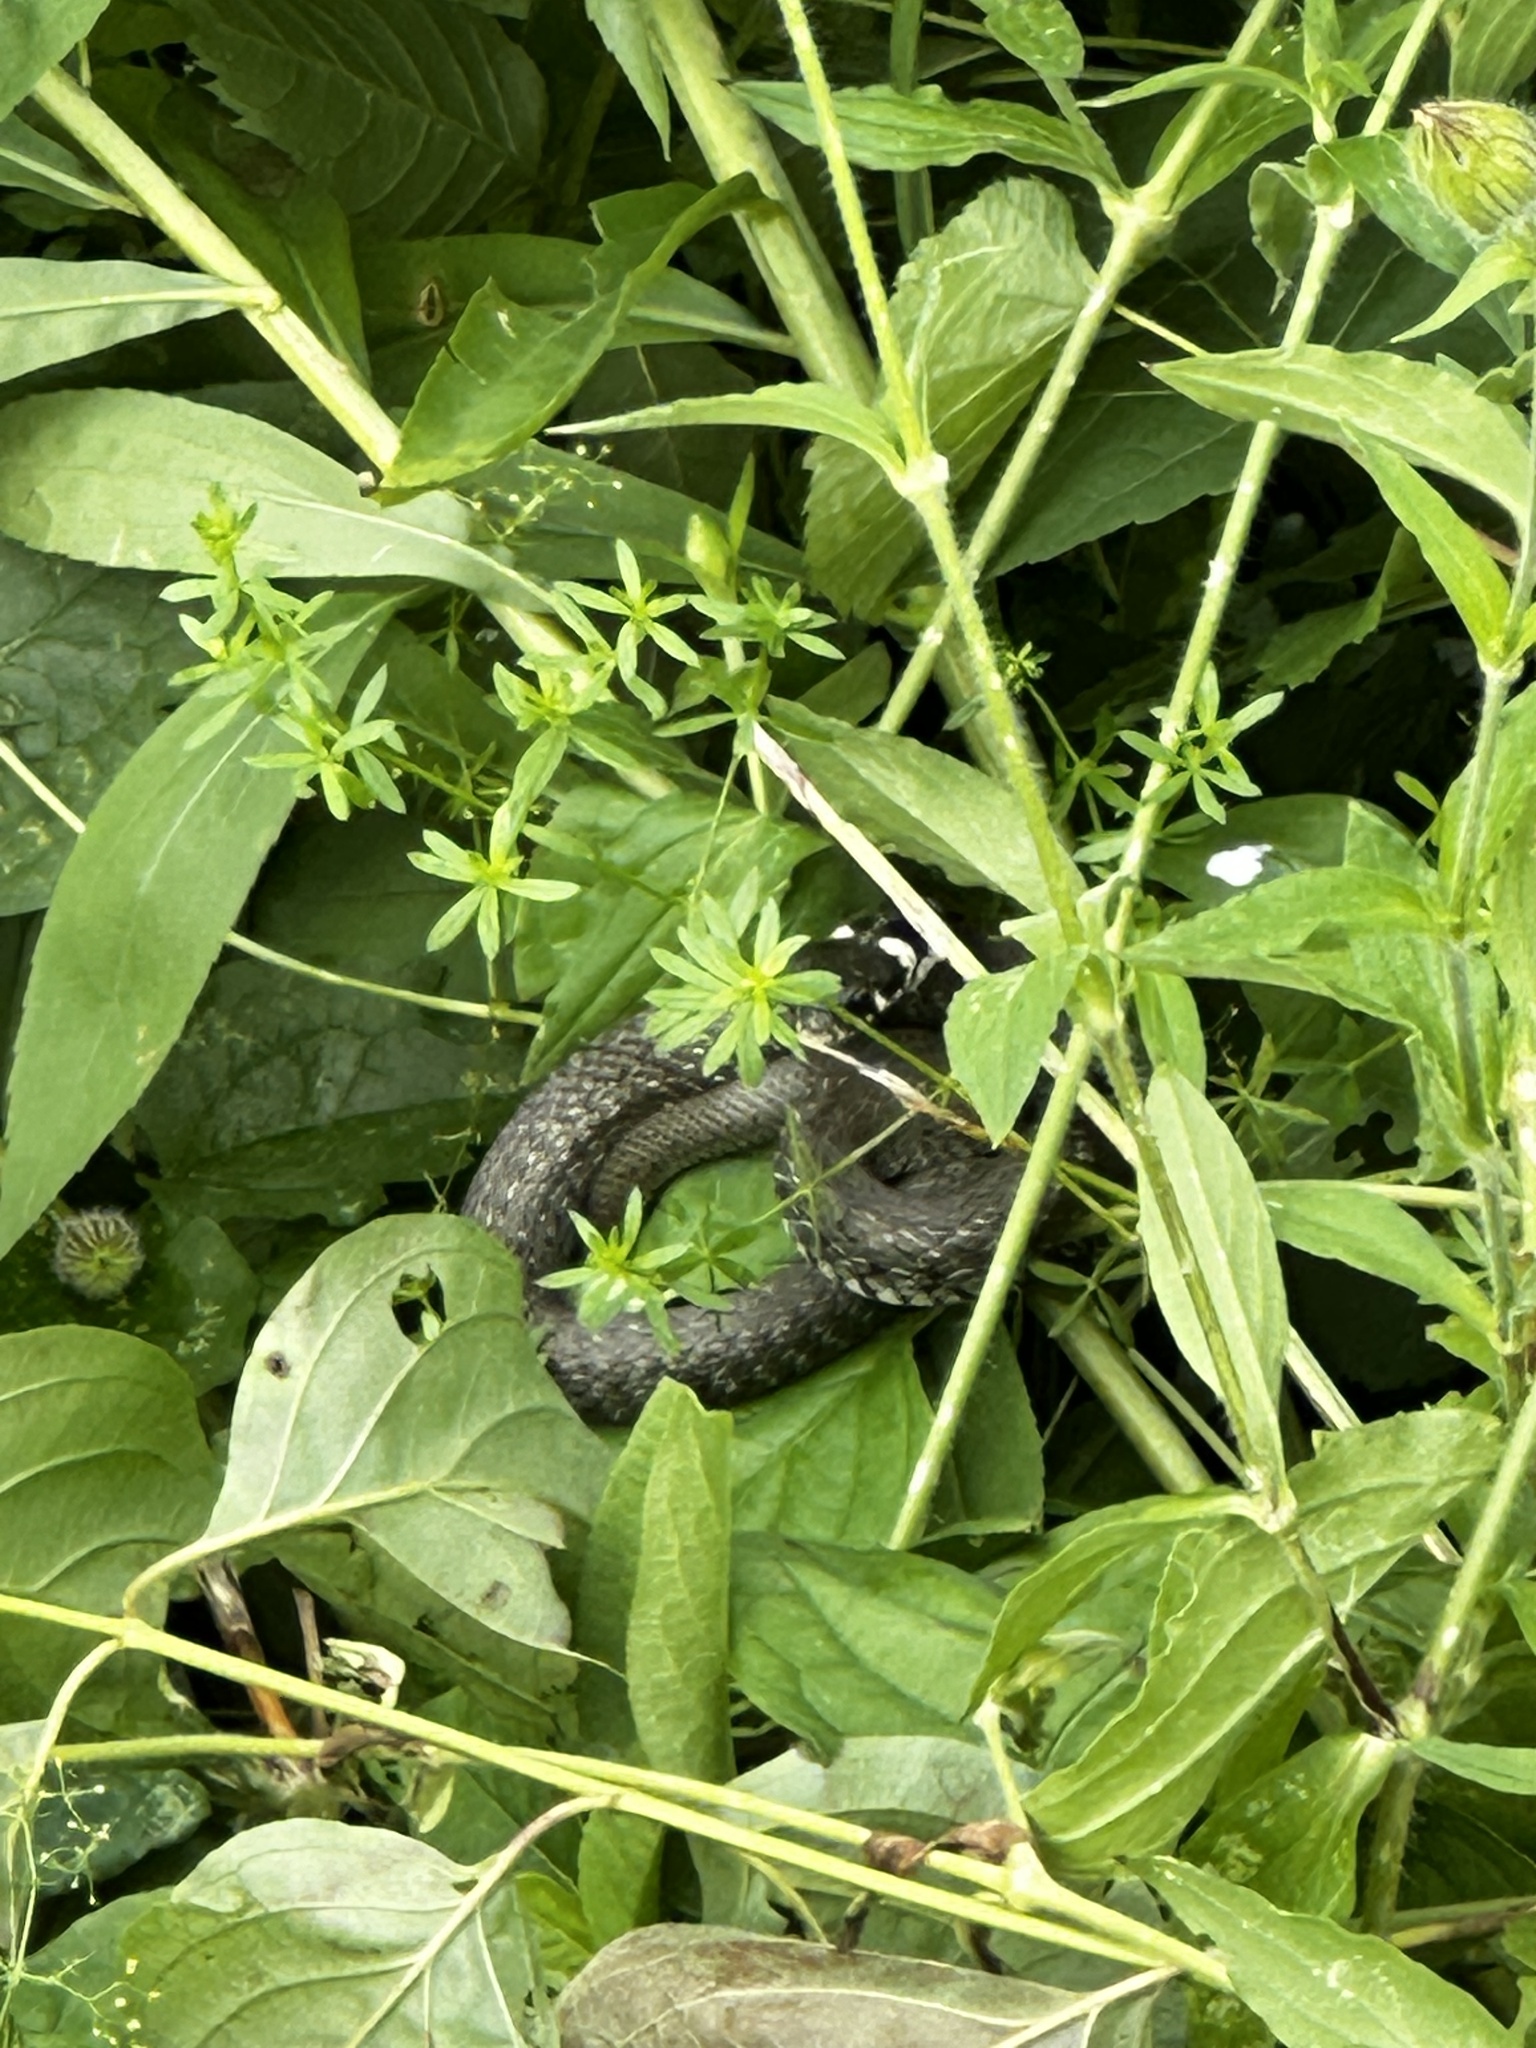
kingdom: Animalia
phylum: Chordata
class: Squamata
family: Colubridae
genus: Natrix
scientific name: Natrix natrix
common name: Grass snake
